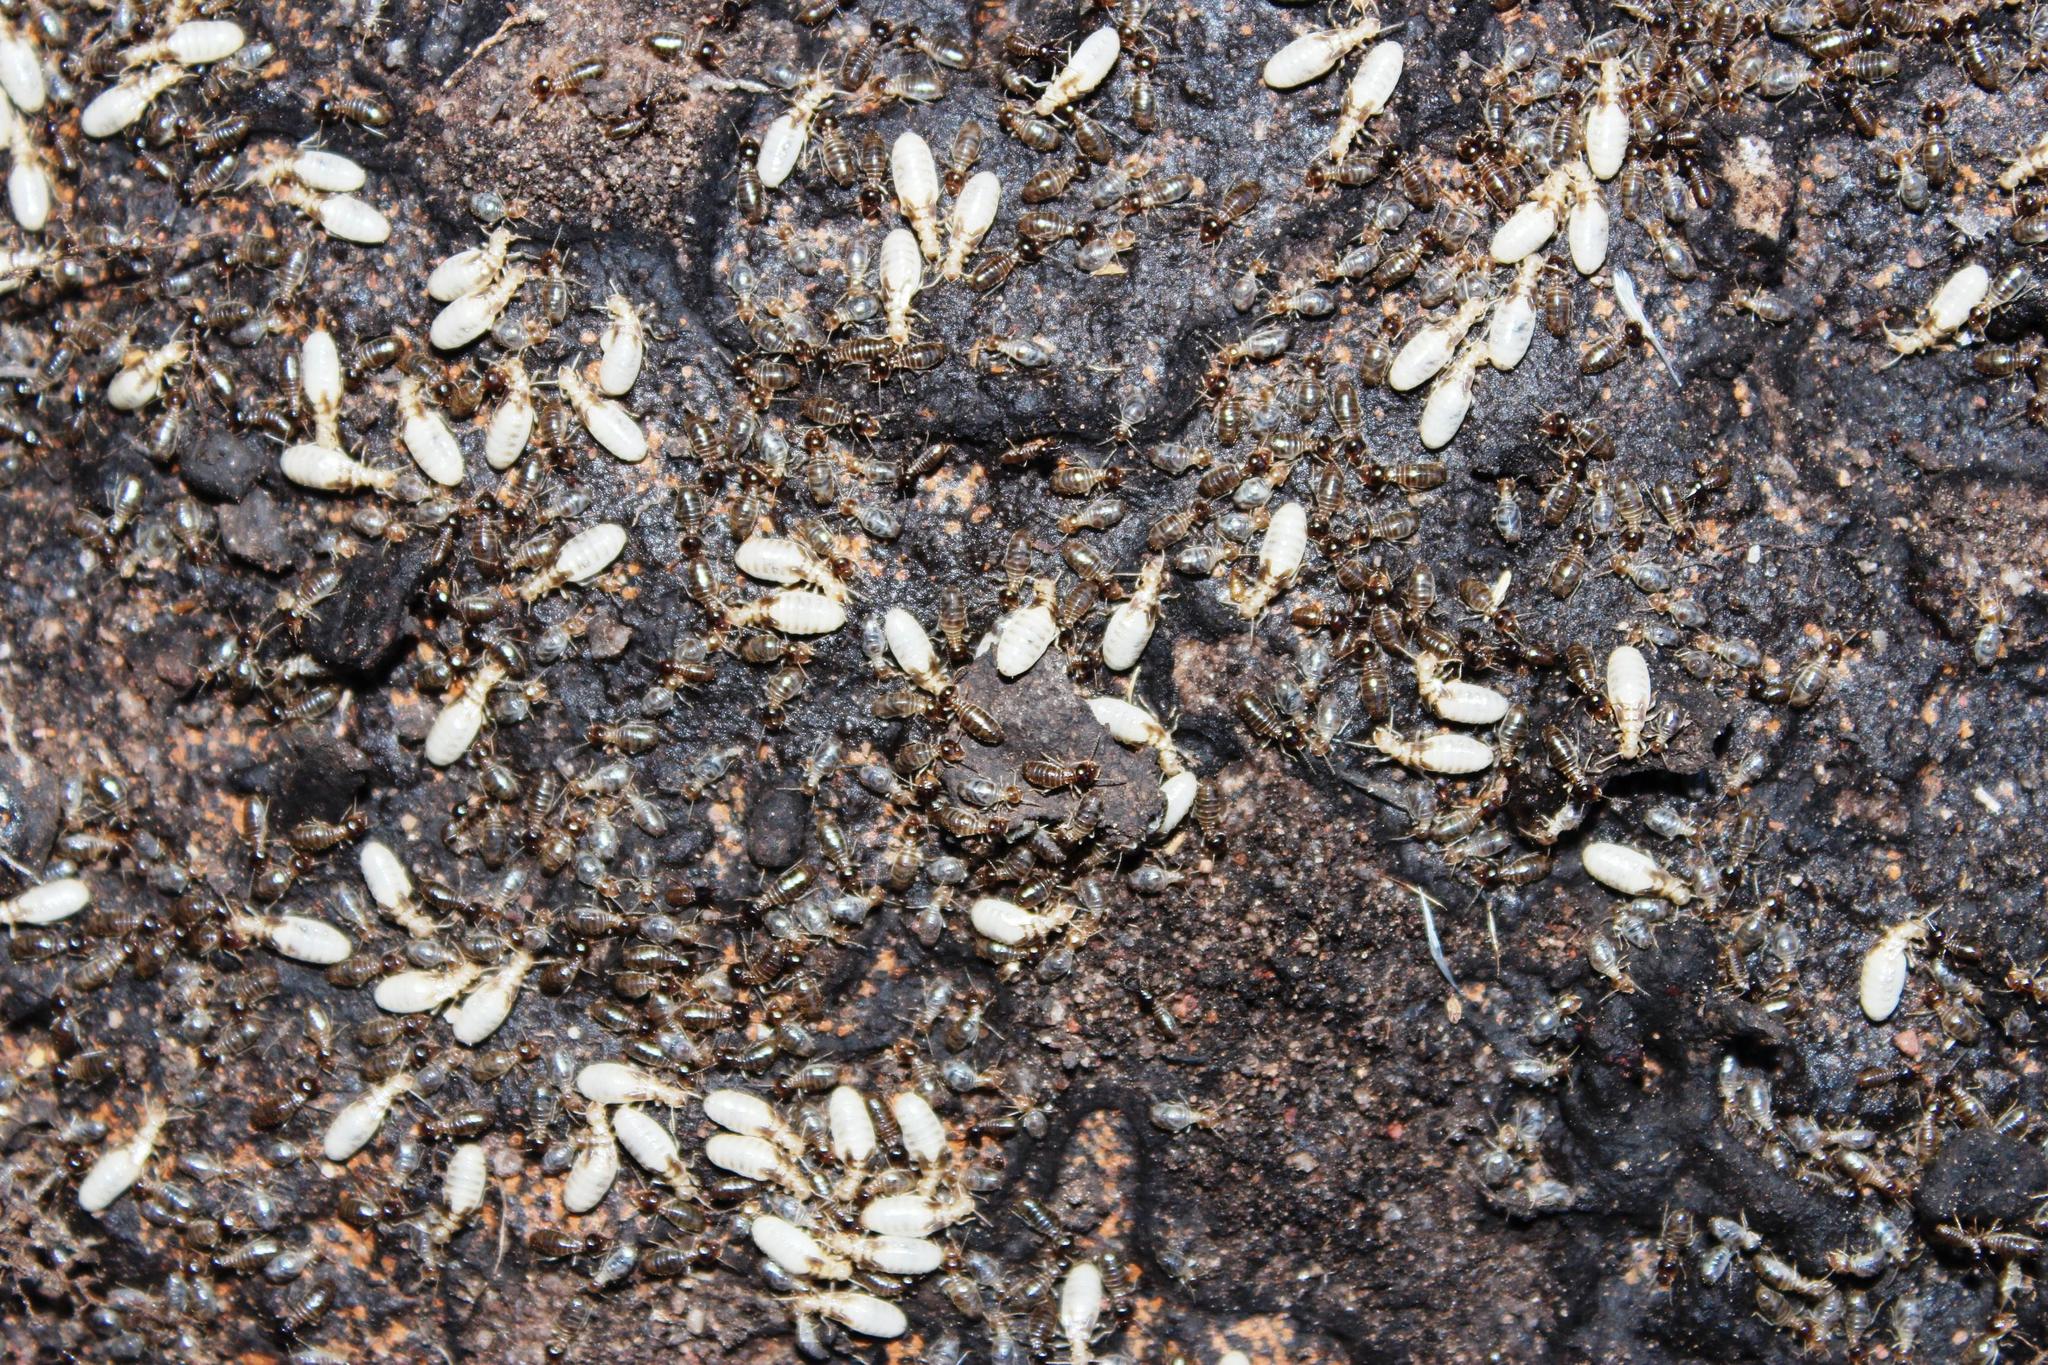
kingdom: Animalia
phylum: Arthropoda
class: Insecta
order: Blattodea
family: Termitidae
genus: Fulleritermes
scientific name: Fulleritermes mallyi
